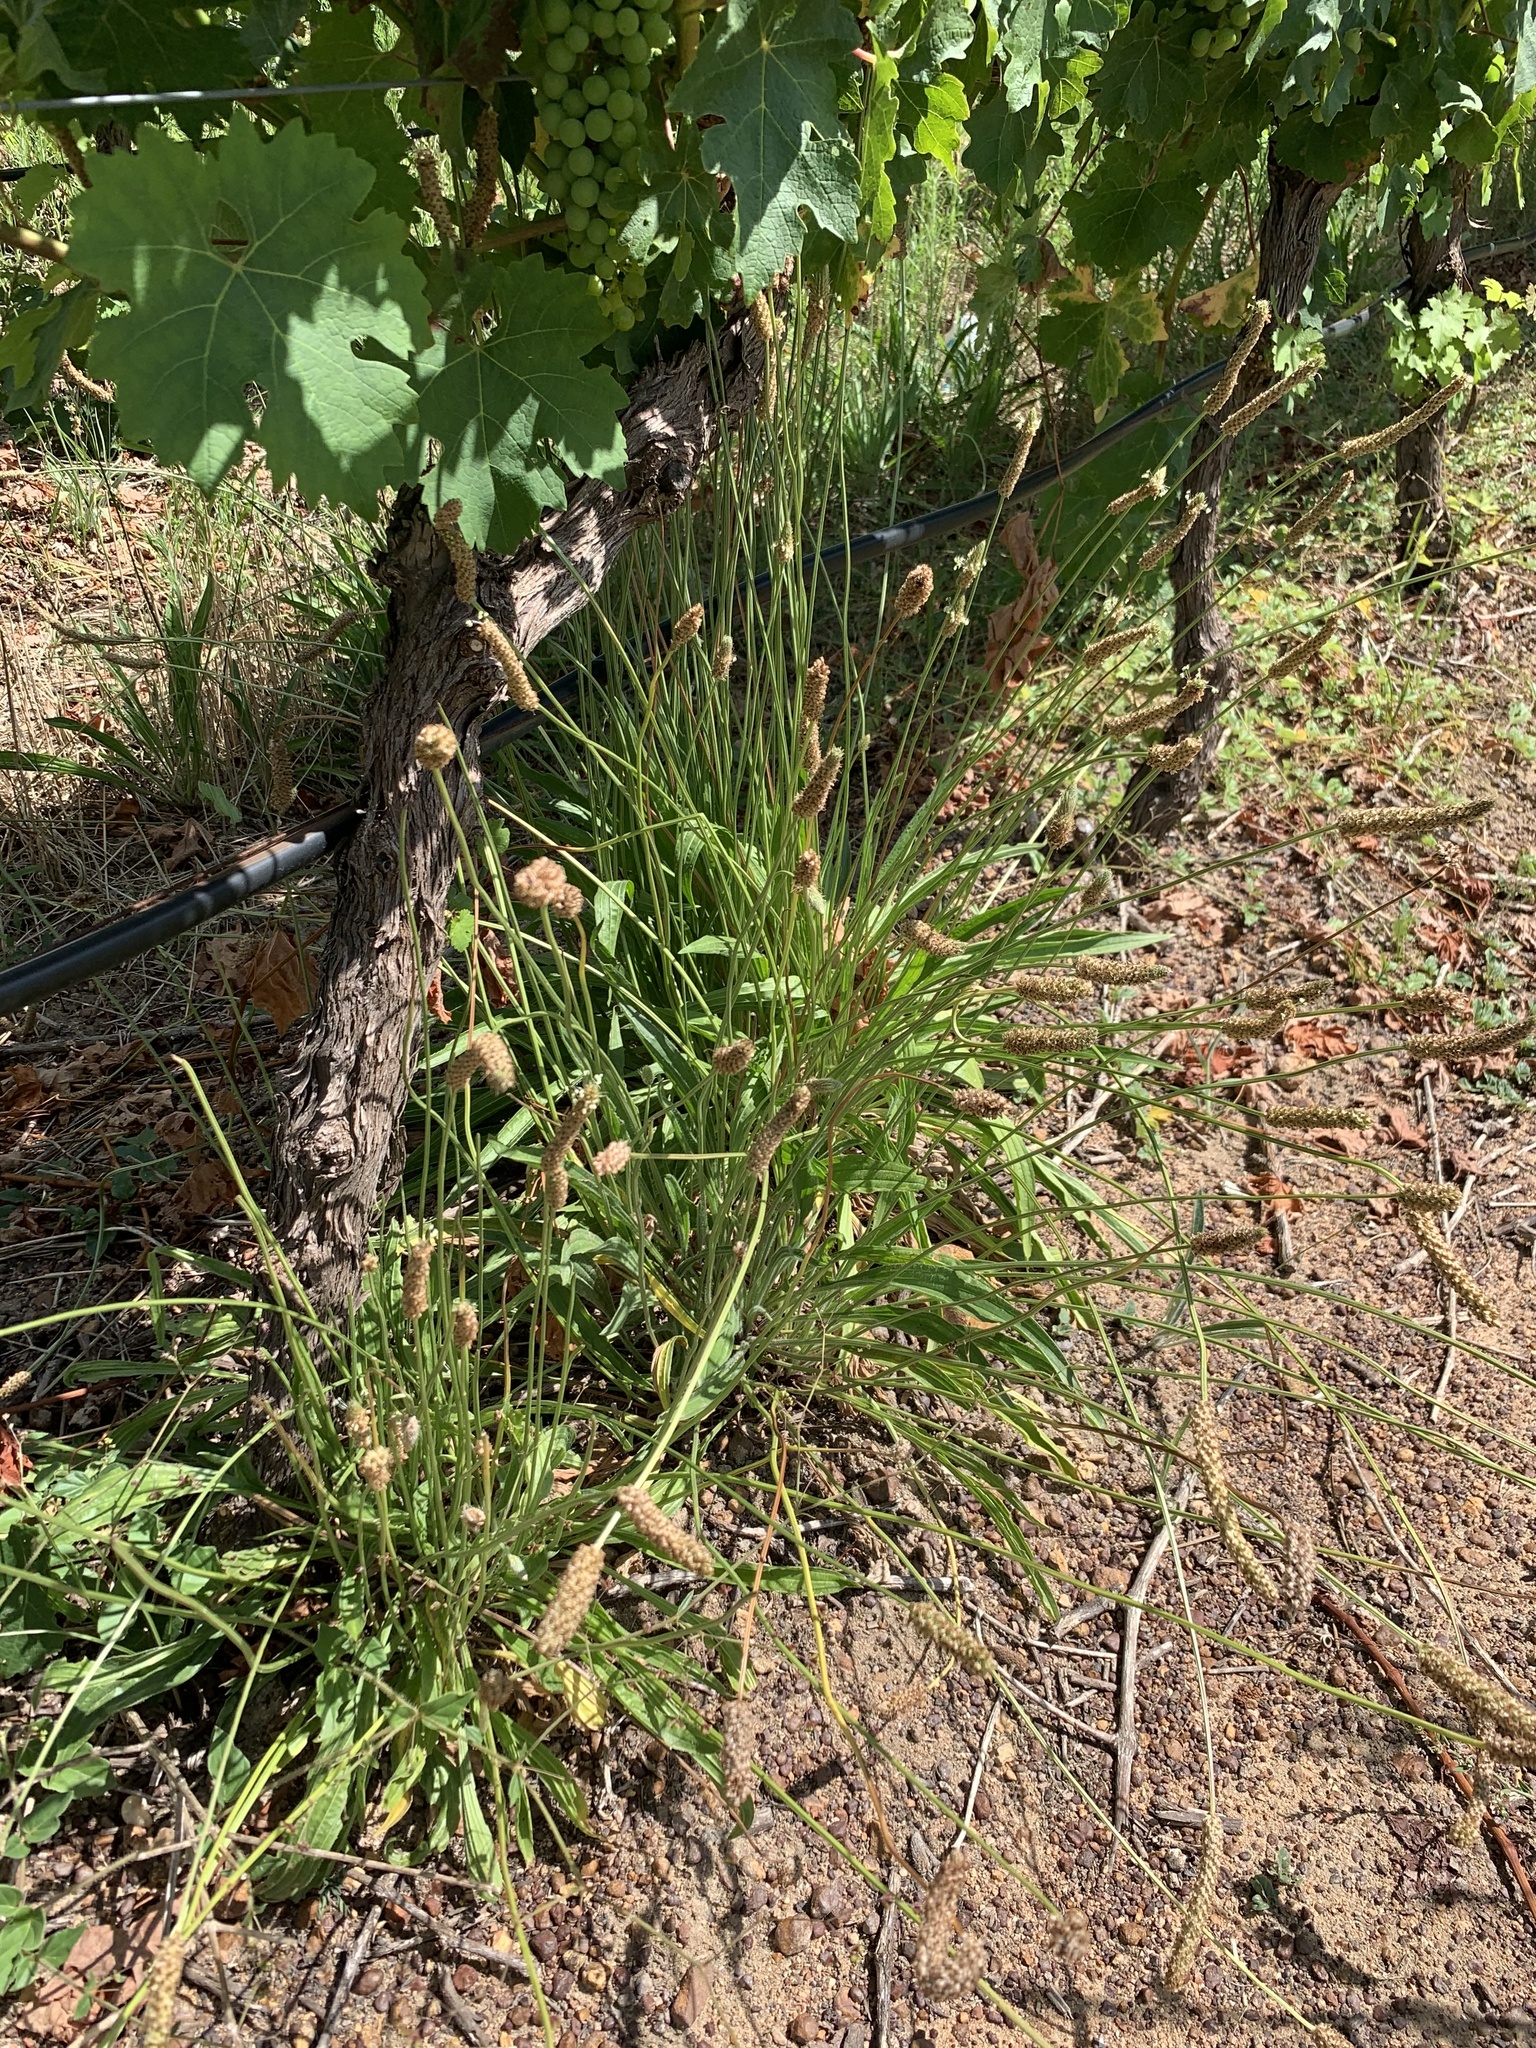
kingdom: Plantae
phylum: Tracheophyta
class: Magnoliopsida
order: Lamiales
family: Plantaginaceae
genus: Plantago
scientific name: Plantago lanceolata
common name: Ribwort plantain
